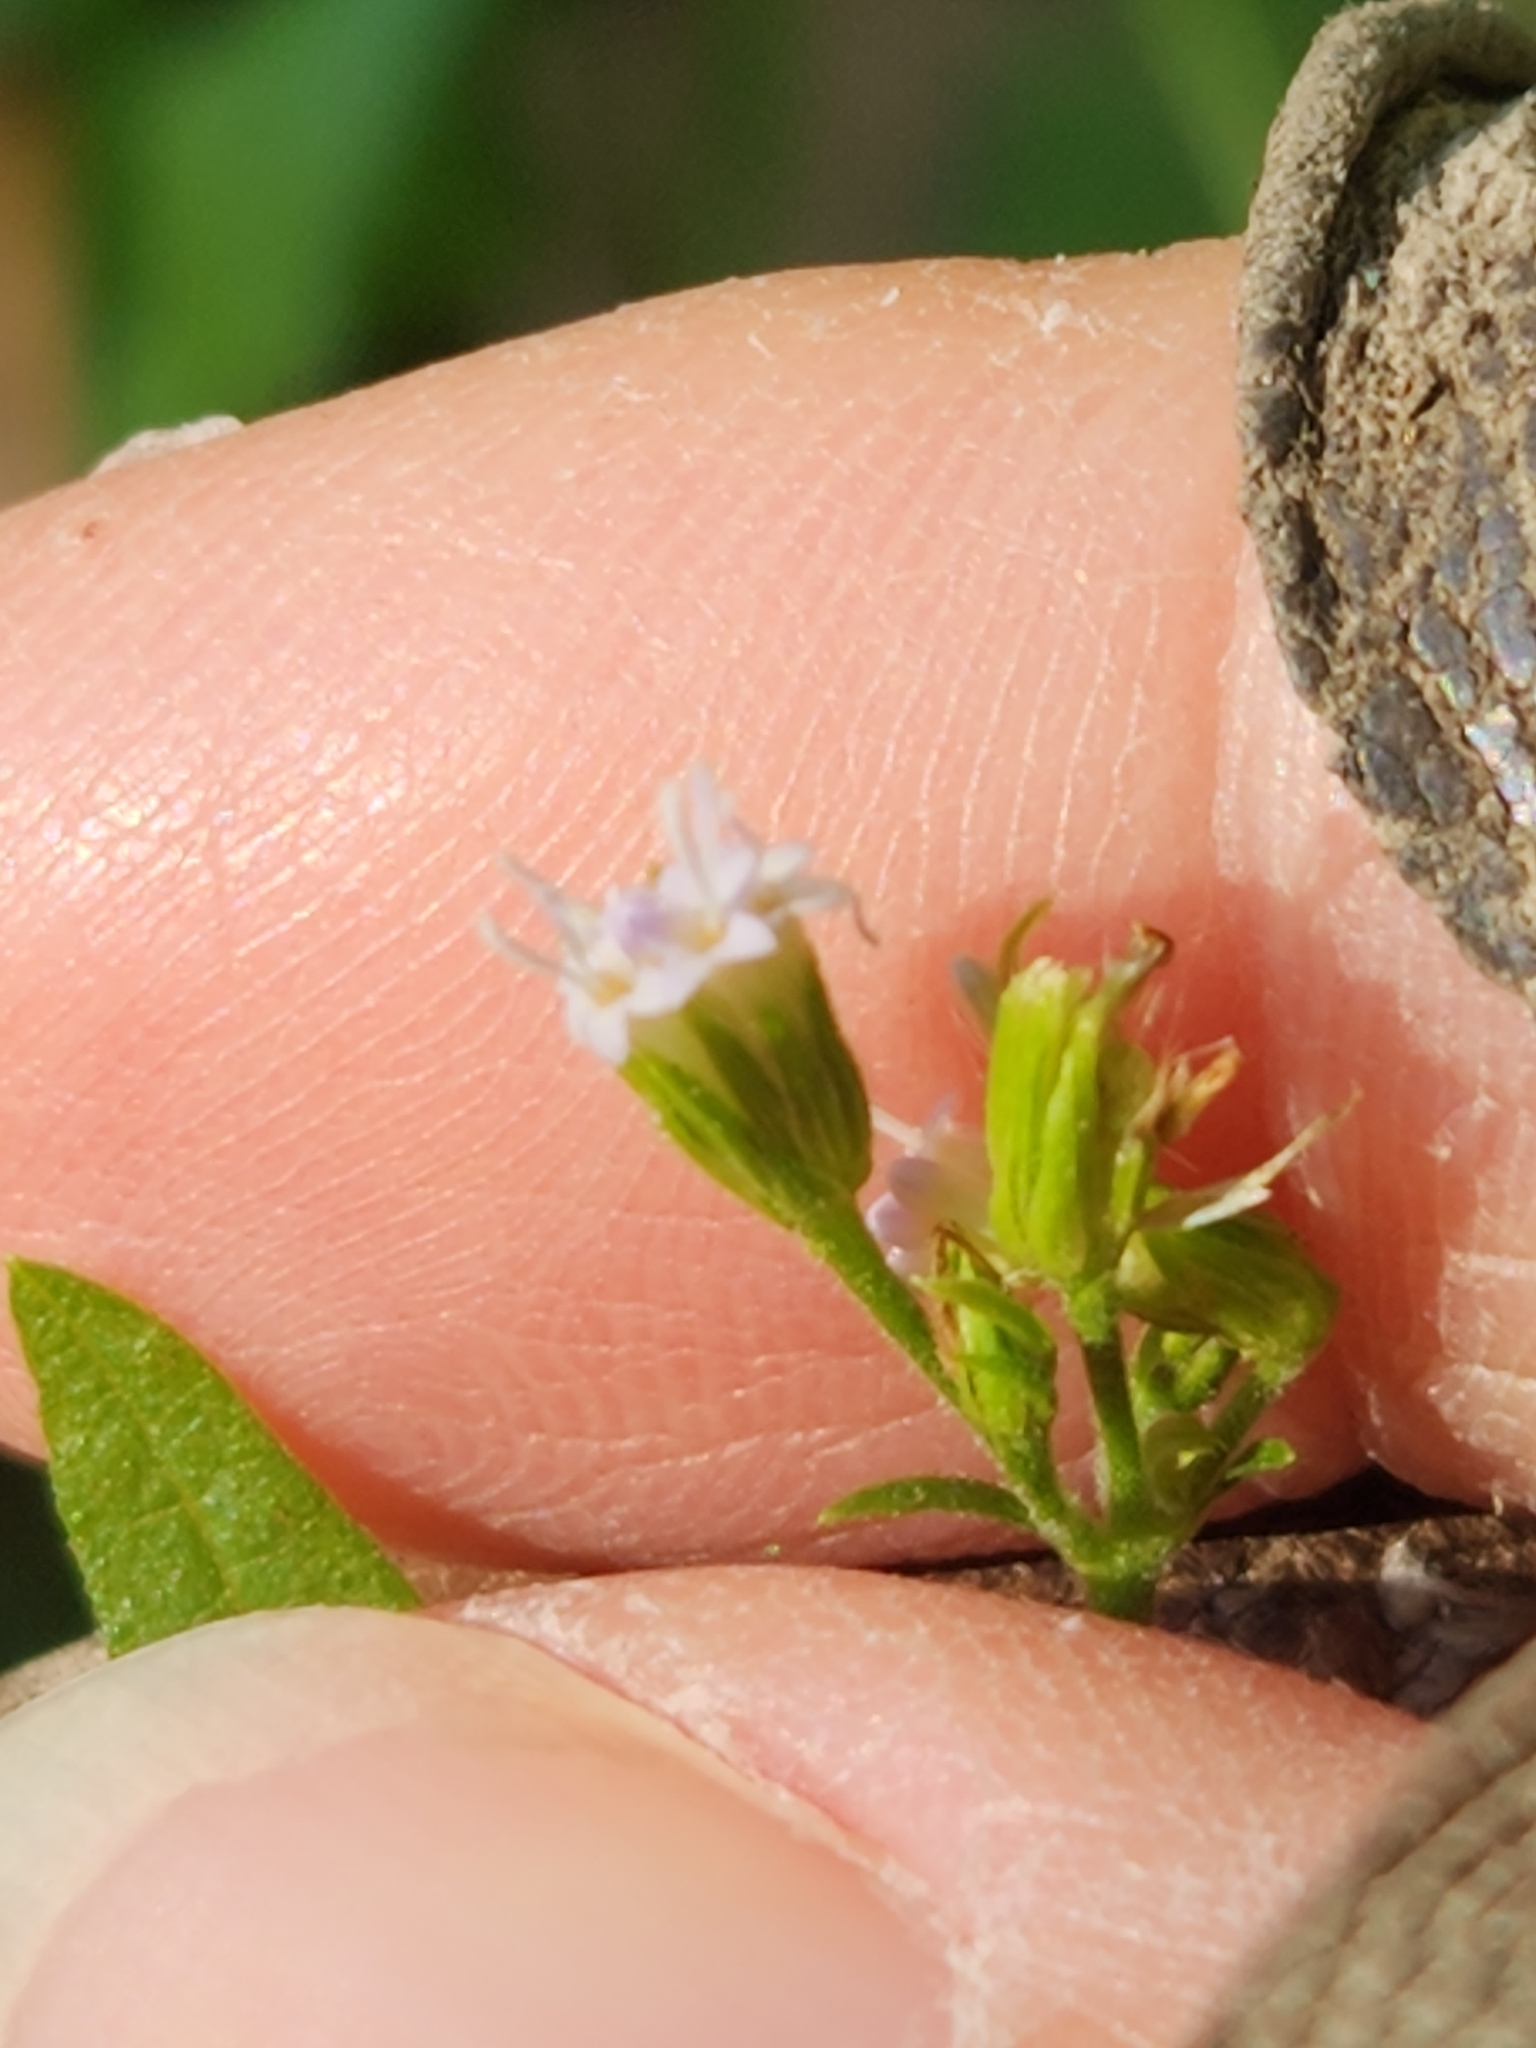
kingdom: Plantae
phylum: Tracheophyta
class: Magnoliopsida
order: Asterales
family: Asteraceae
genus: Fleischmannia
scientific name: Fleischmannia incarnata
